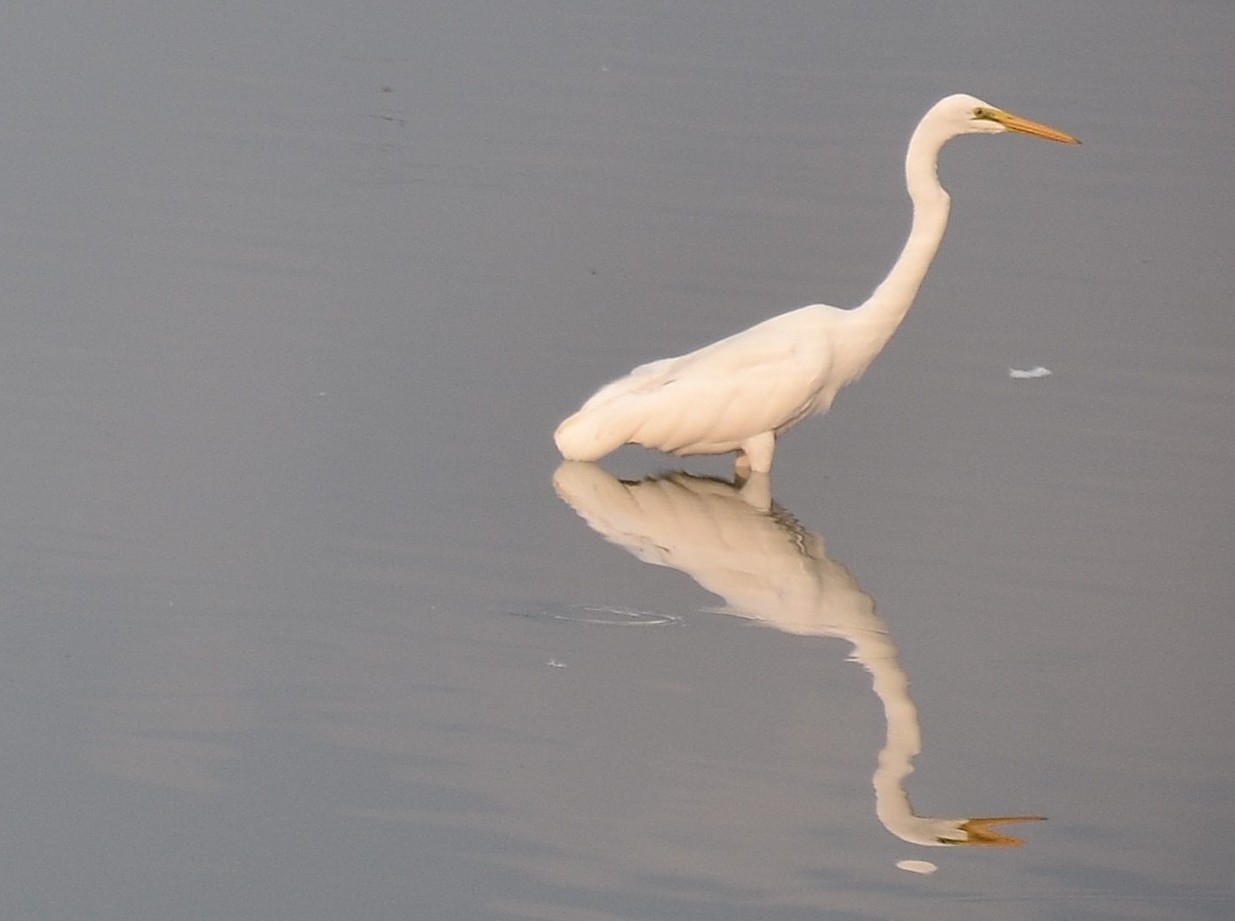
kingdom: Animalia
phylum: Chordata
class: Aves
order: Pelecaniformes
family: Ardeidae
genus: Ardea
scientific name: Ardea alba
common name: Great egret
